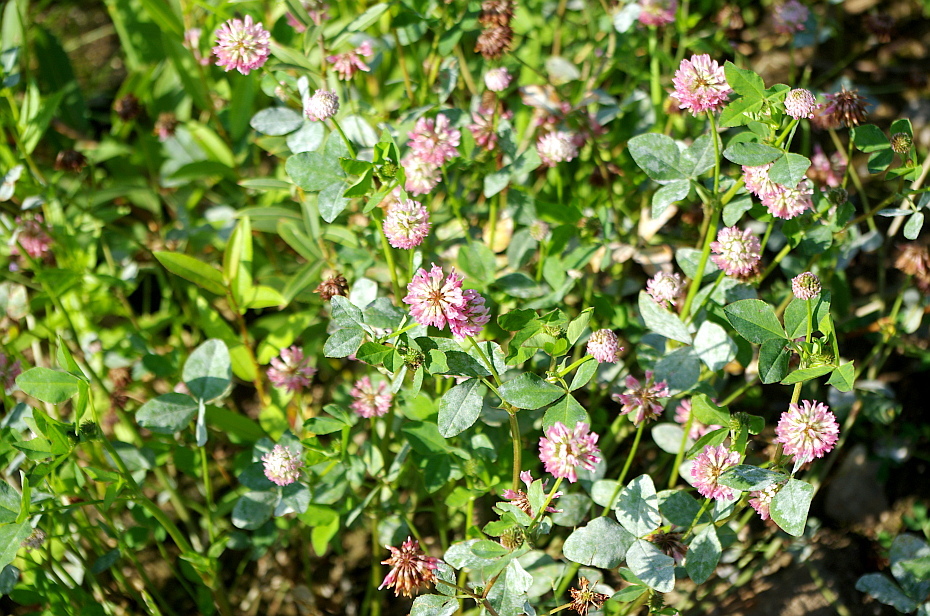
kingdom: Plantae
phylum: Tracheophyta
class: Magnoliopsida
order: Fabales
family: Fabaceae
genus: Trifolium
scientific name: Trifolium hybridum
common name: Alsike clover
